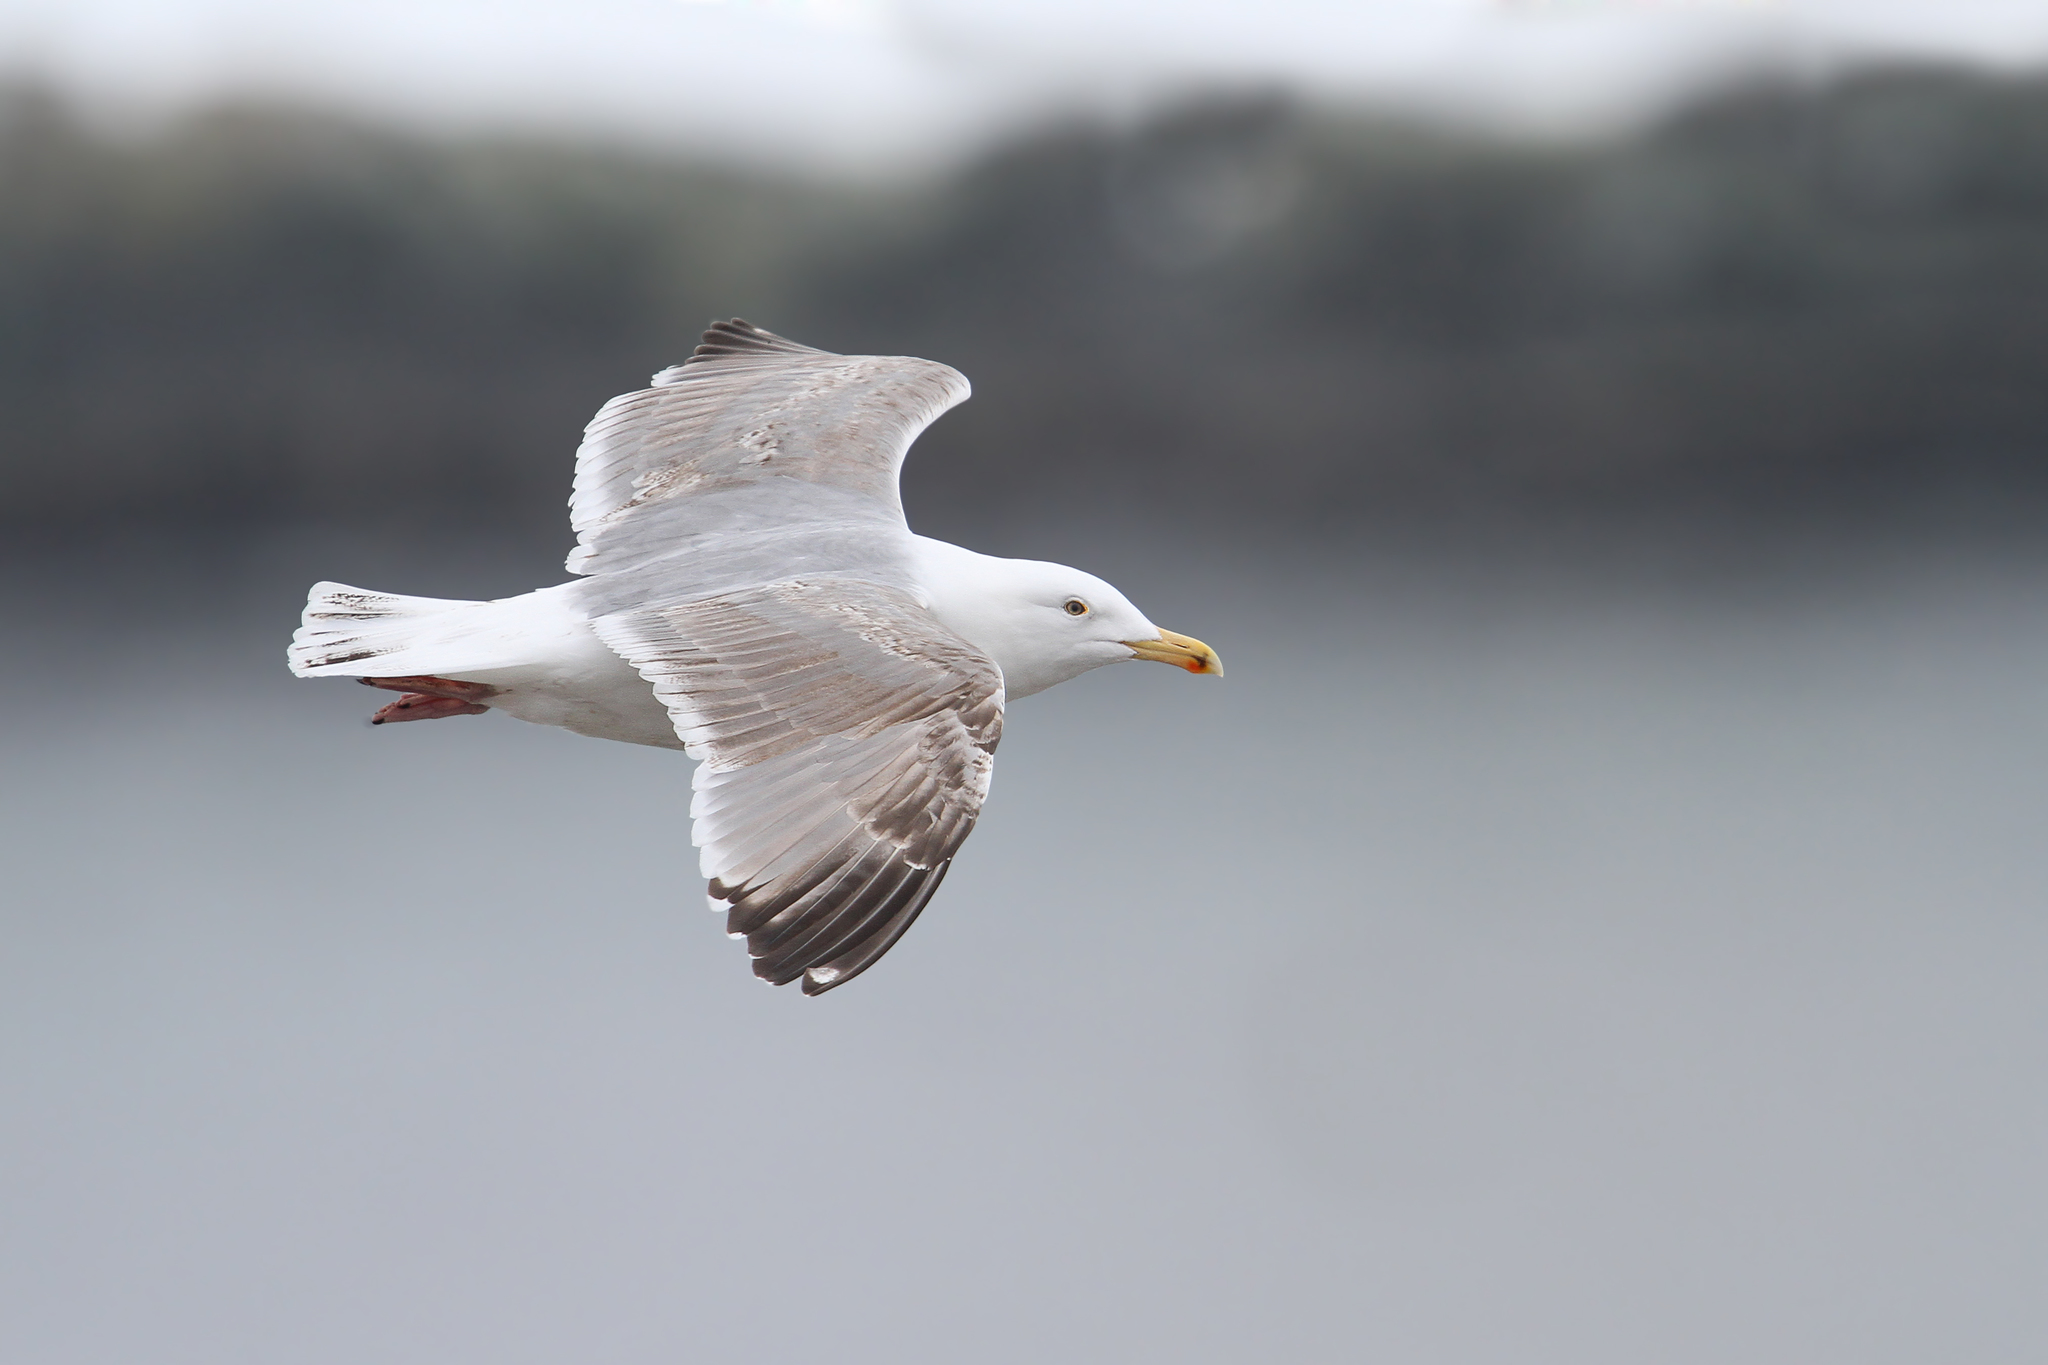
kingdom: Animalia
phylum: Chordata
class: Aves
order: Charadriiformes
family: Laridae
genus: Larus
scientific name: Larus argentatus
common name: Herring gull
